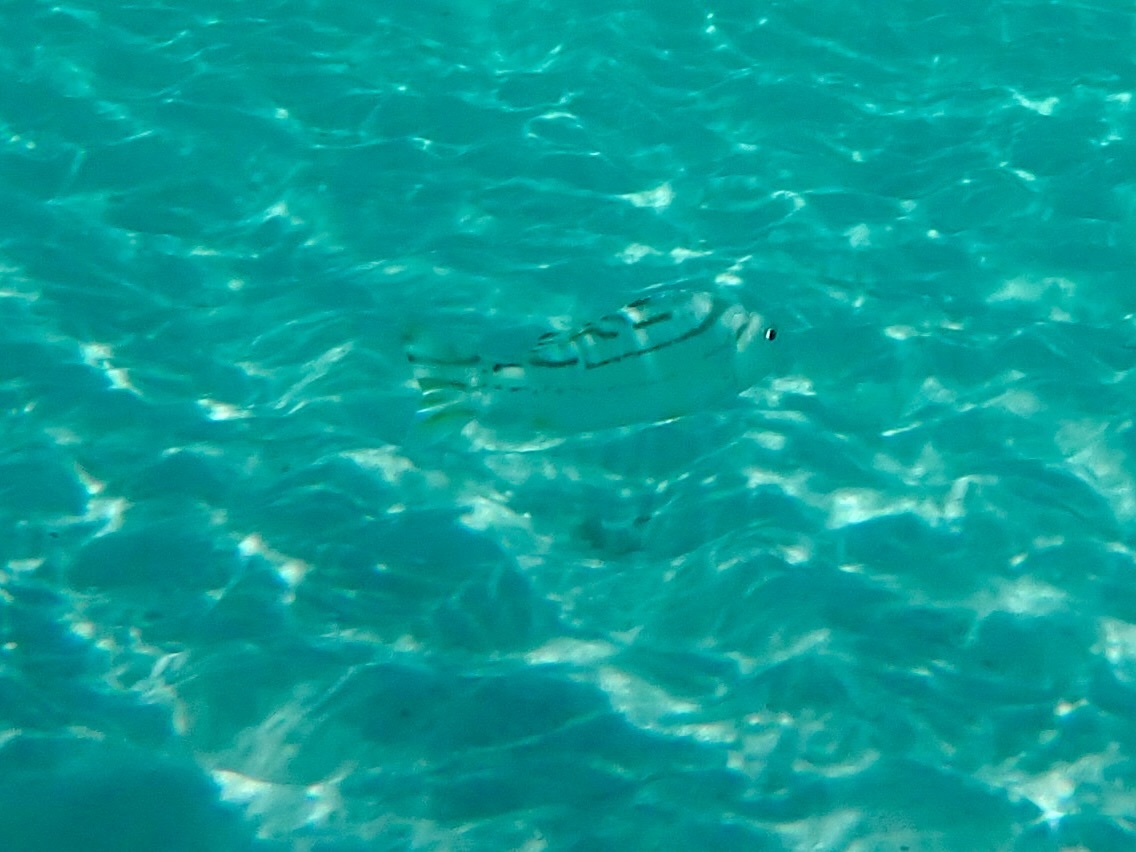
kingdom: Animalia
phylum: Chordata
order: Perciformes
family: Terapontidae
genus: Terapon
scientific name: Terapon jarbua
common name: Jarbua terapon
